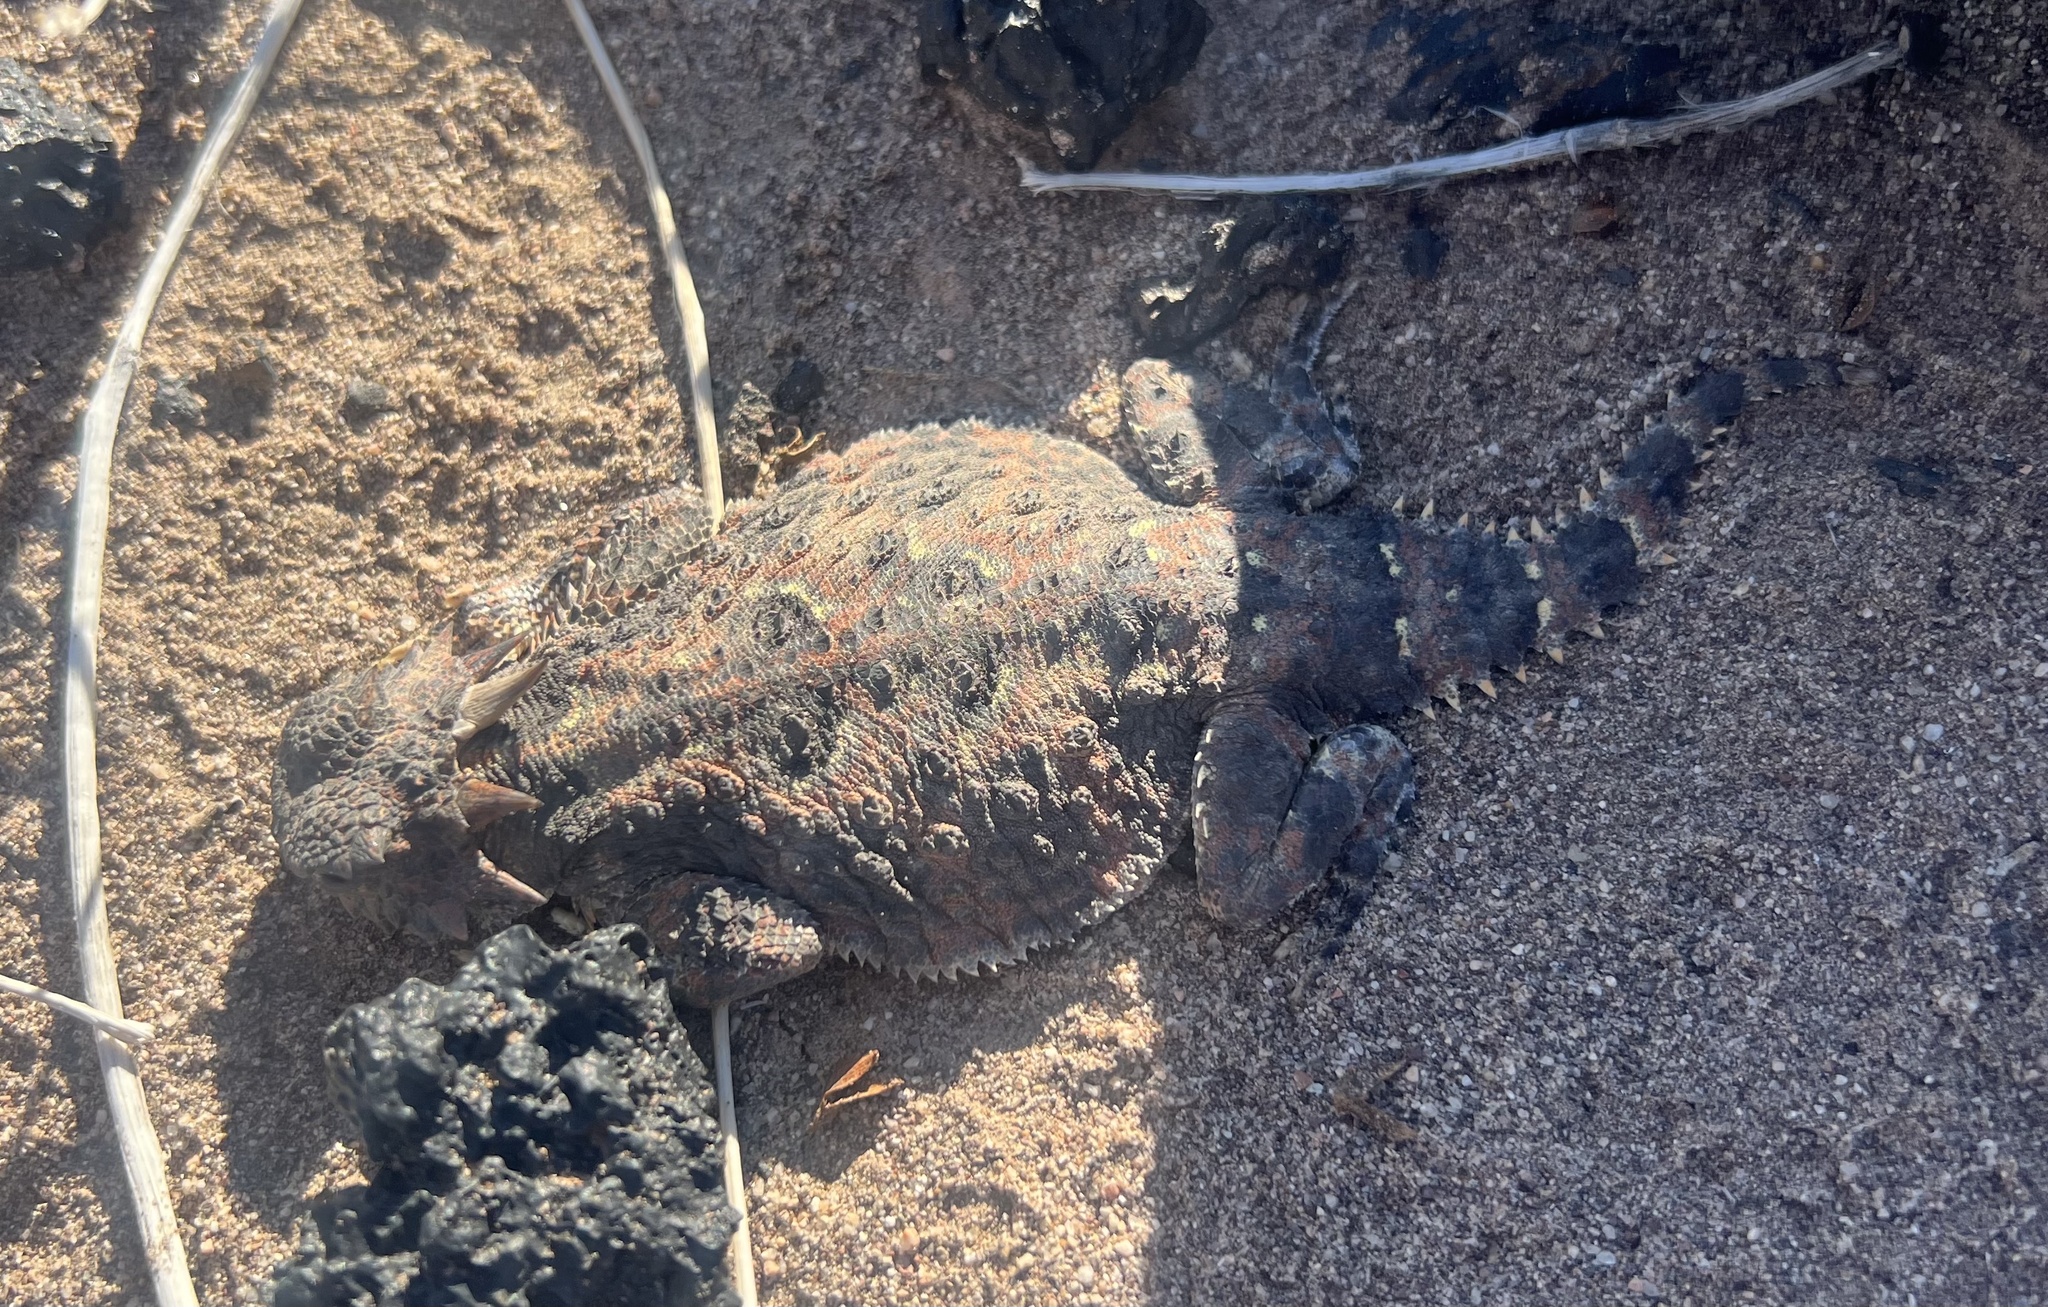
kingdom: Animalia
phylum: Chordata
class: Squamata
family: Phrynosomatidae
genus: Phrynosoma
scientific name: Phrynosoma platyrhinos
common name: Desert horned lizard
